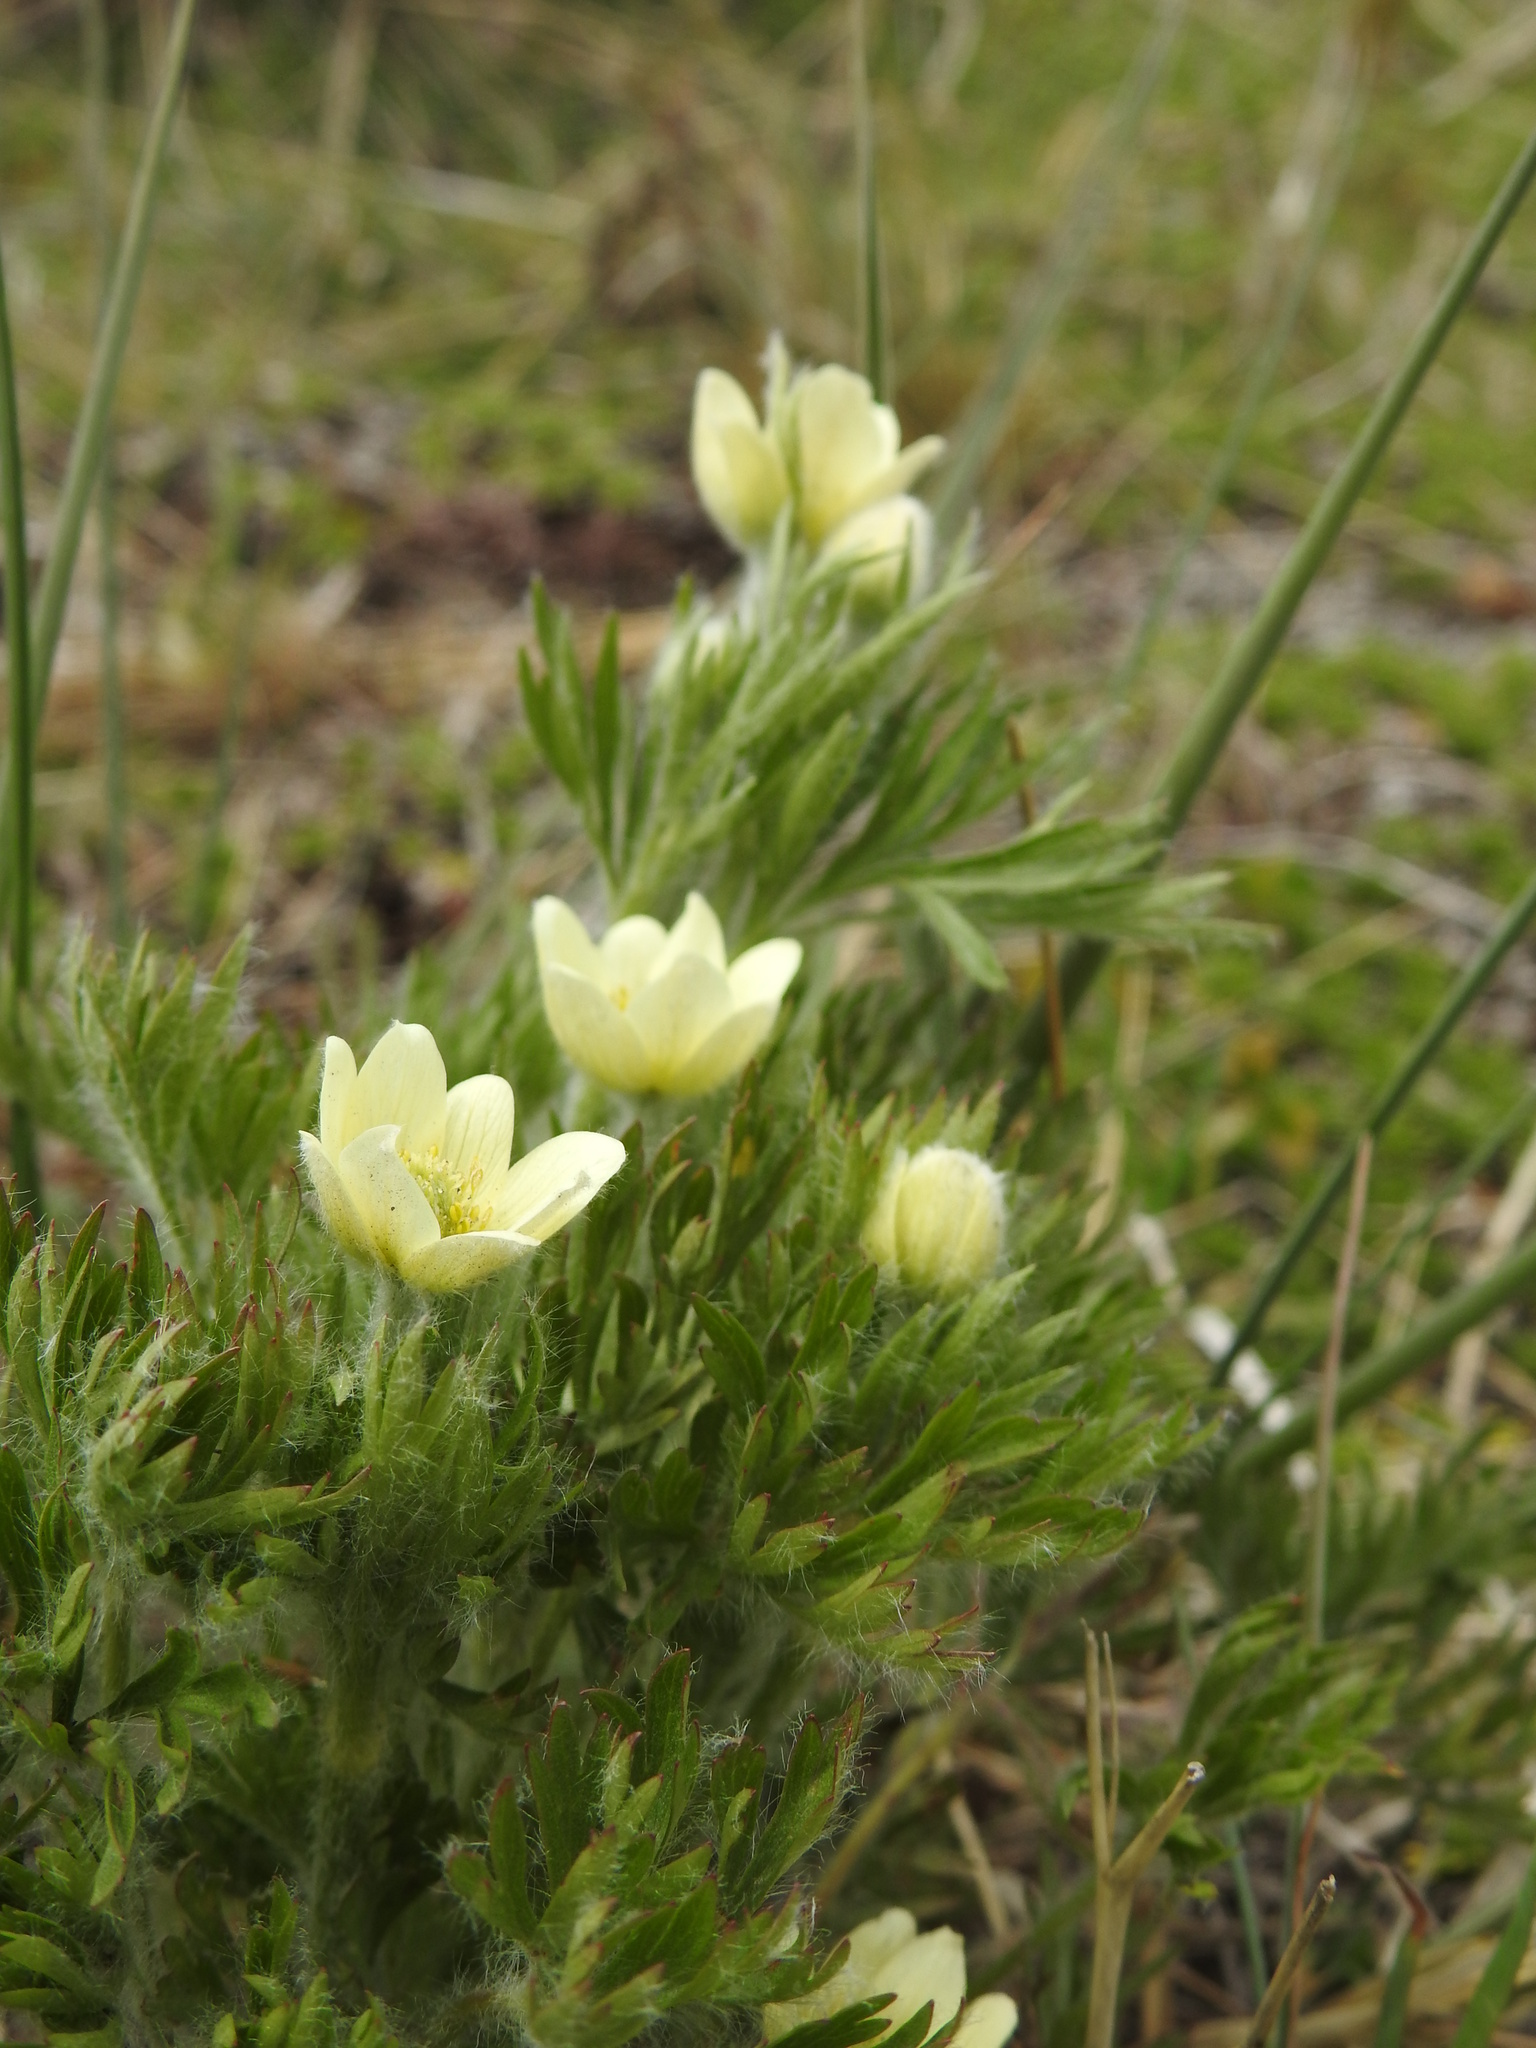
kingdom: Plantae
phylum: Tracheophyta
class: Magnoliopsida
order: Ranunculales
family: Ranunculaceae
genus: Anemone
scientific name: Anemone multifida
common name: Bird's-foot anemone
